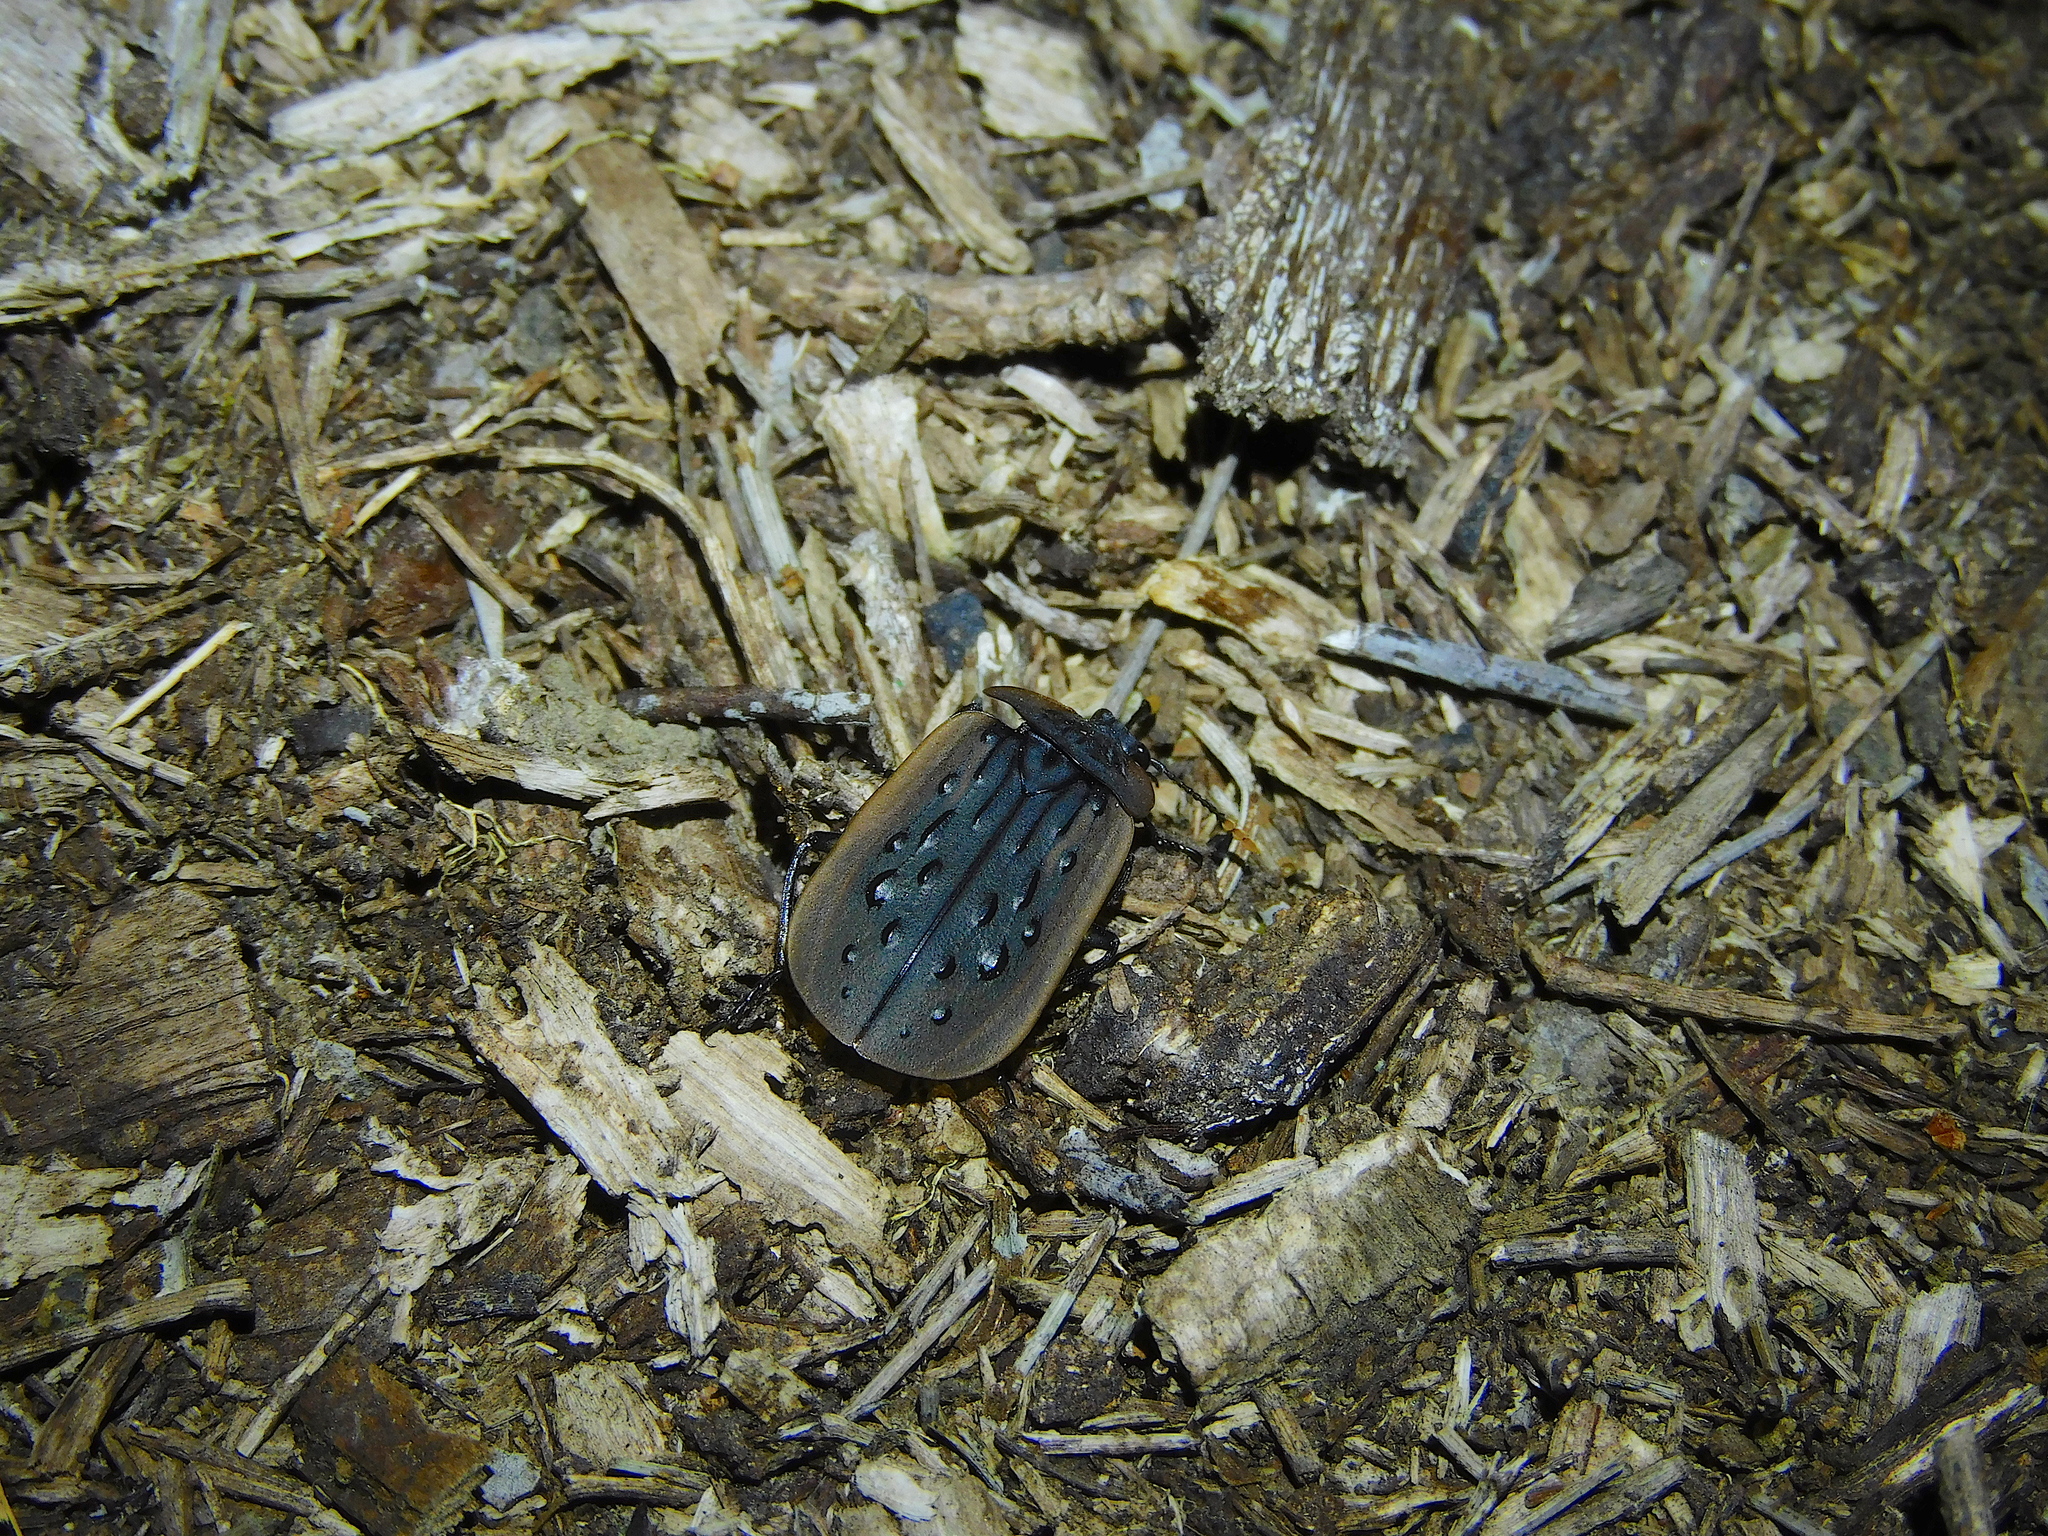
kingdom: Animalia
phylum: Arthropoda
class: Insecta
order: Coleoptera
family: Staphylinidae
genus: Ptomaphila
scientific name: Ptomaphila lacrymosa
